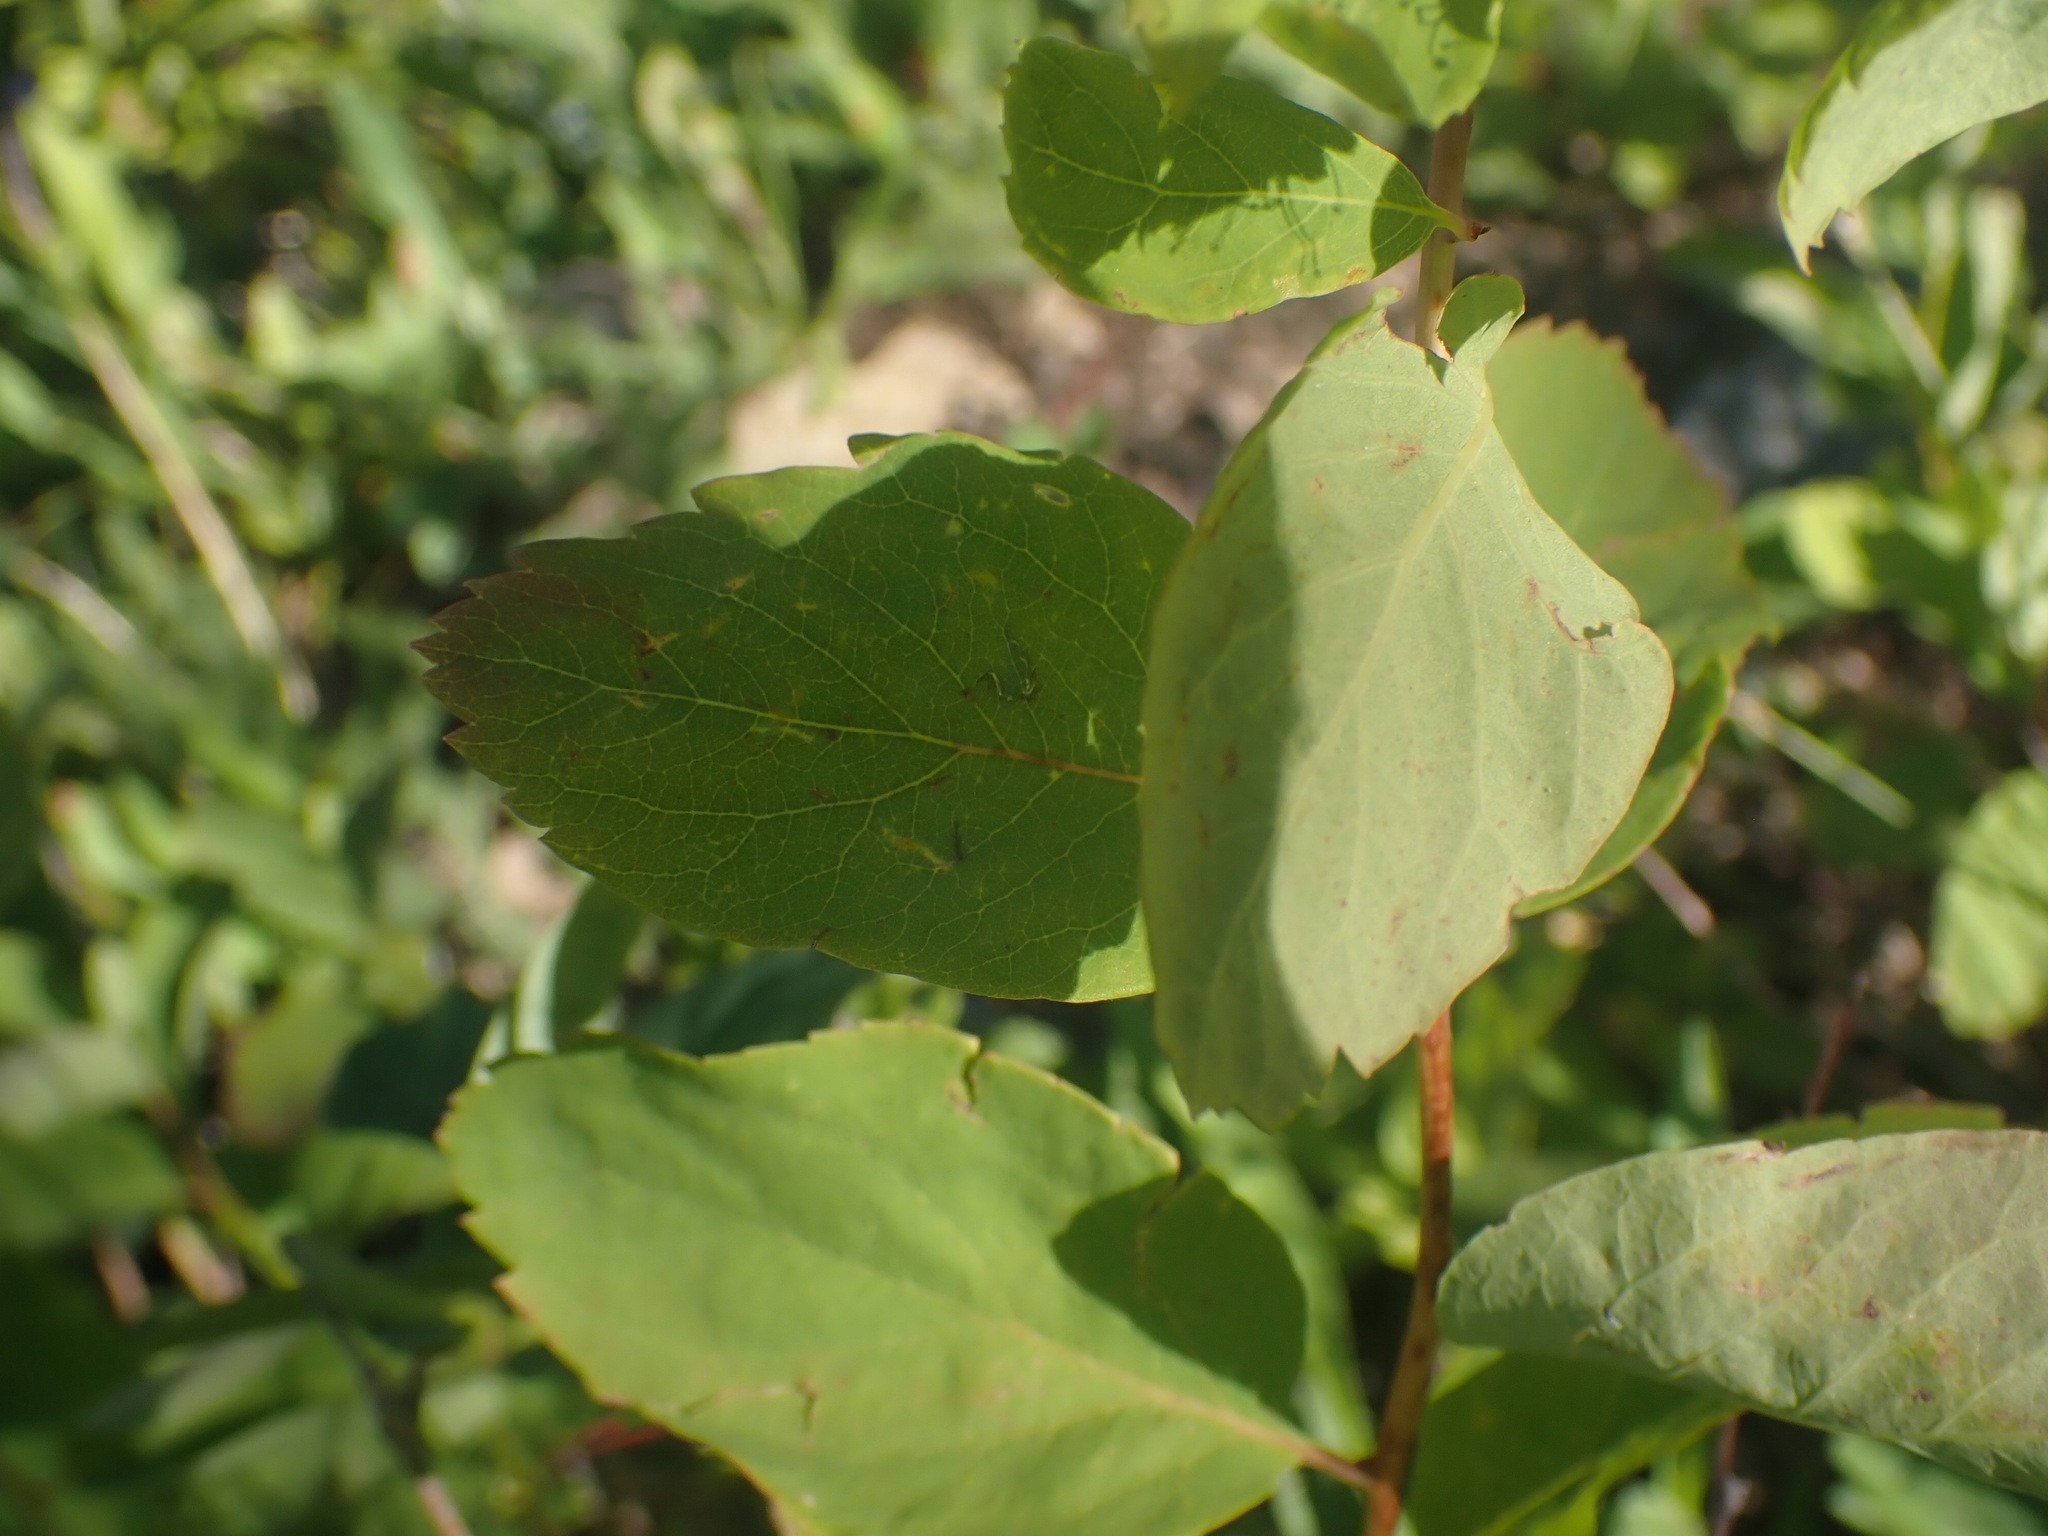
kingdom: Plantae
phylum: Tracheophyta
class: Magnoliopsida
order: Rosales
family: Rosaceae
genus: Spiraea
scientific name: Spiraea lucida
